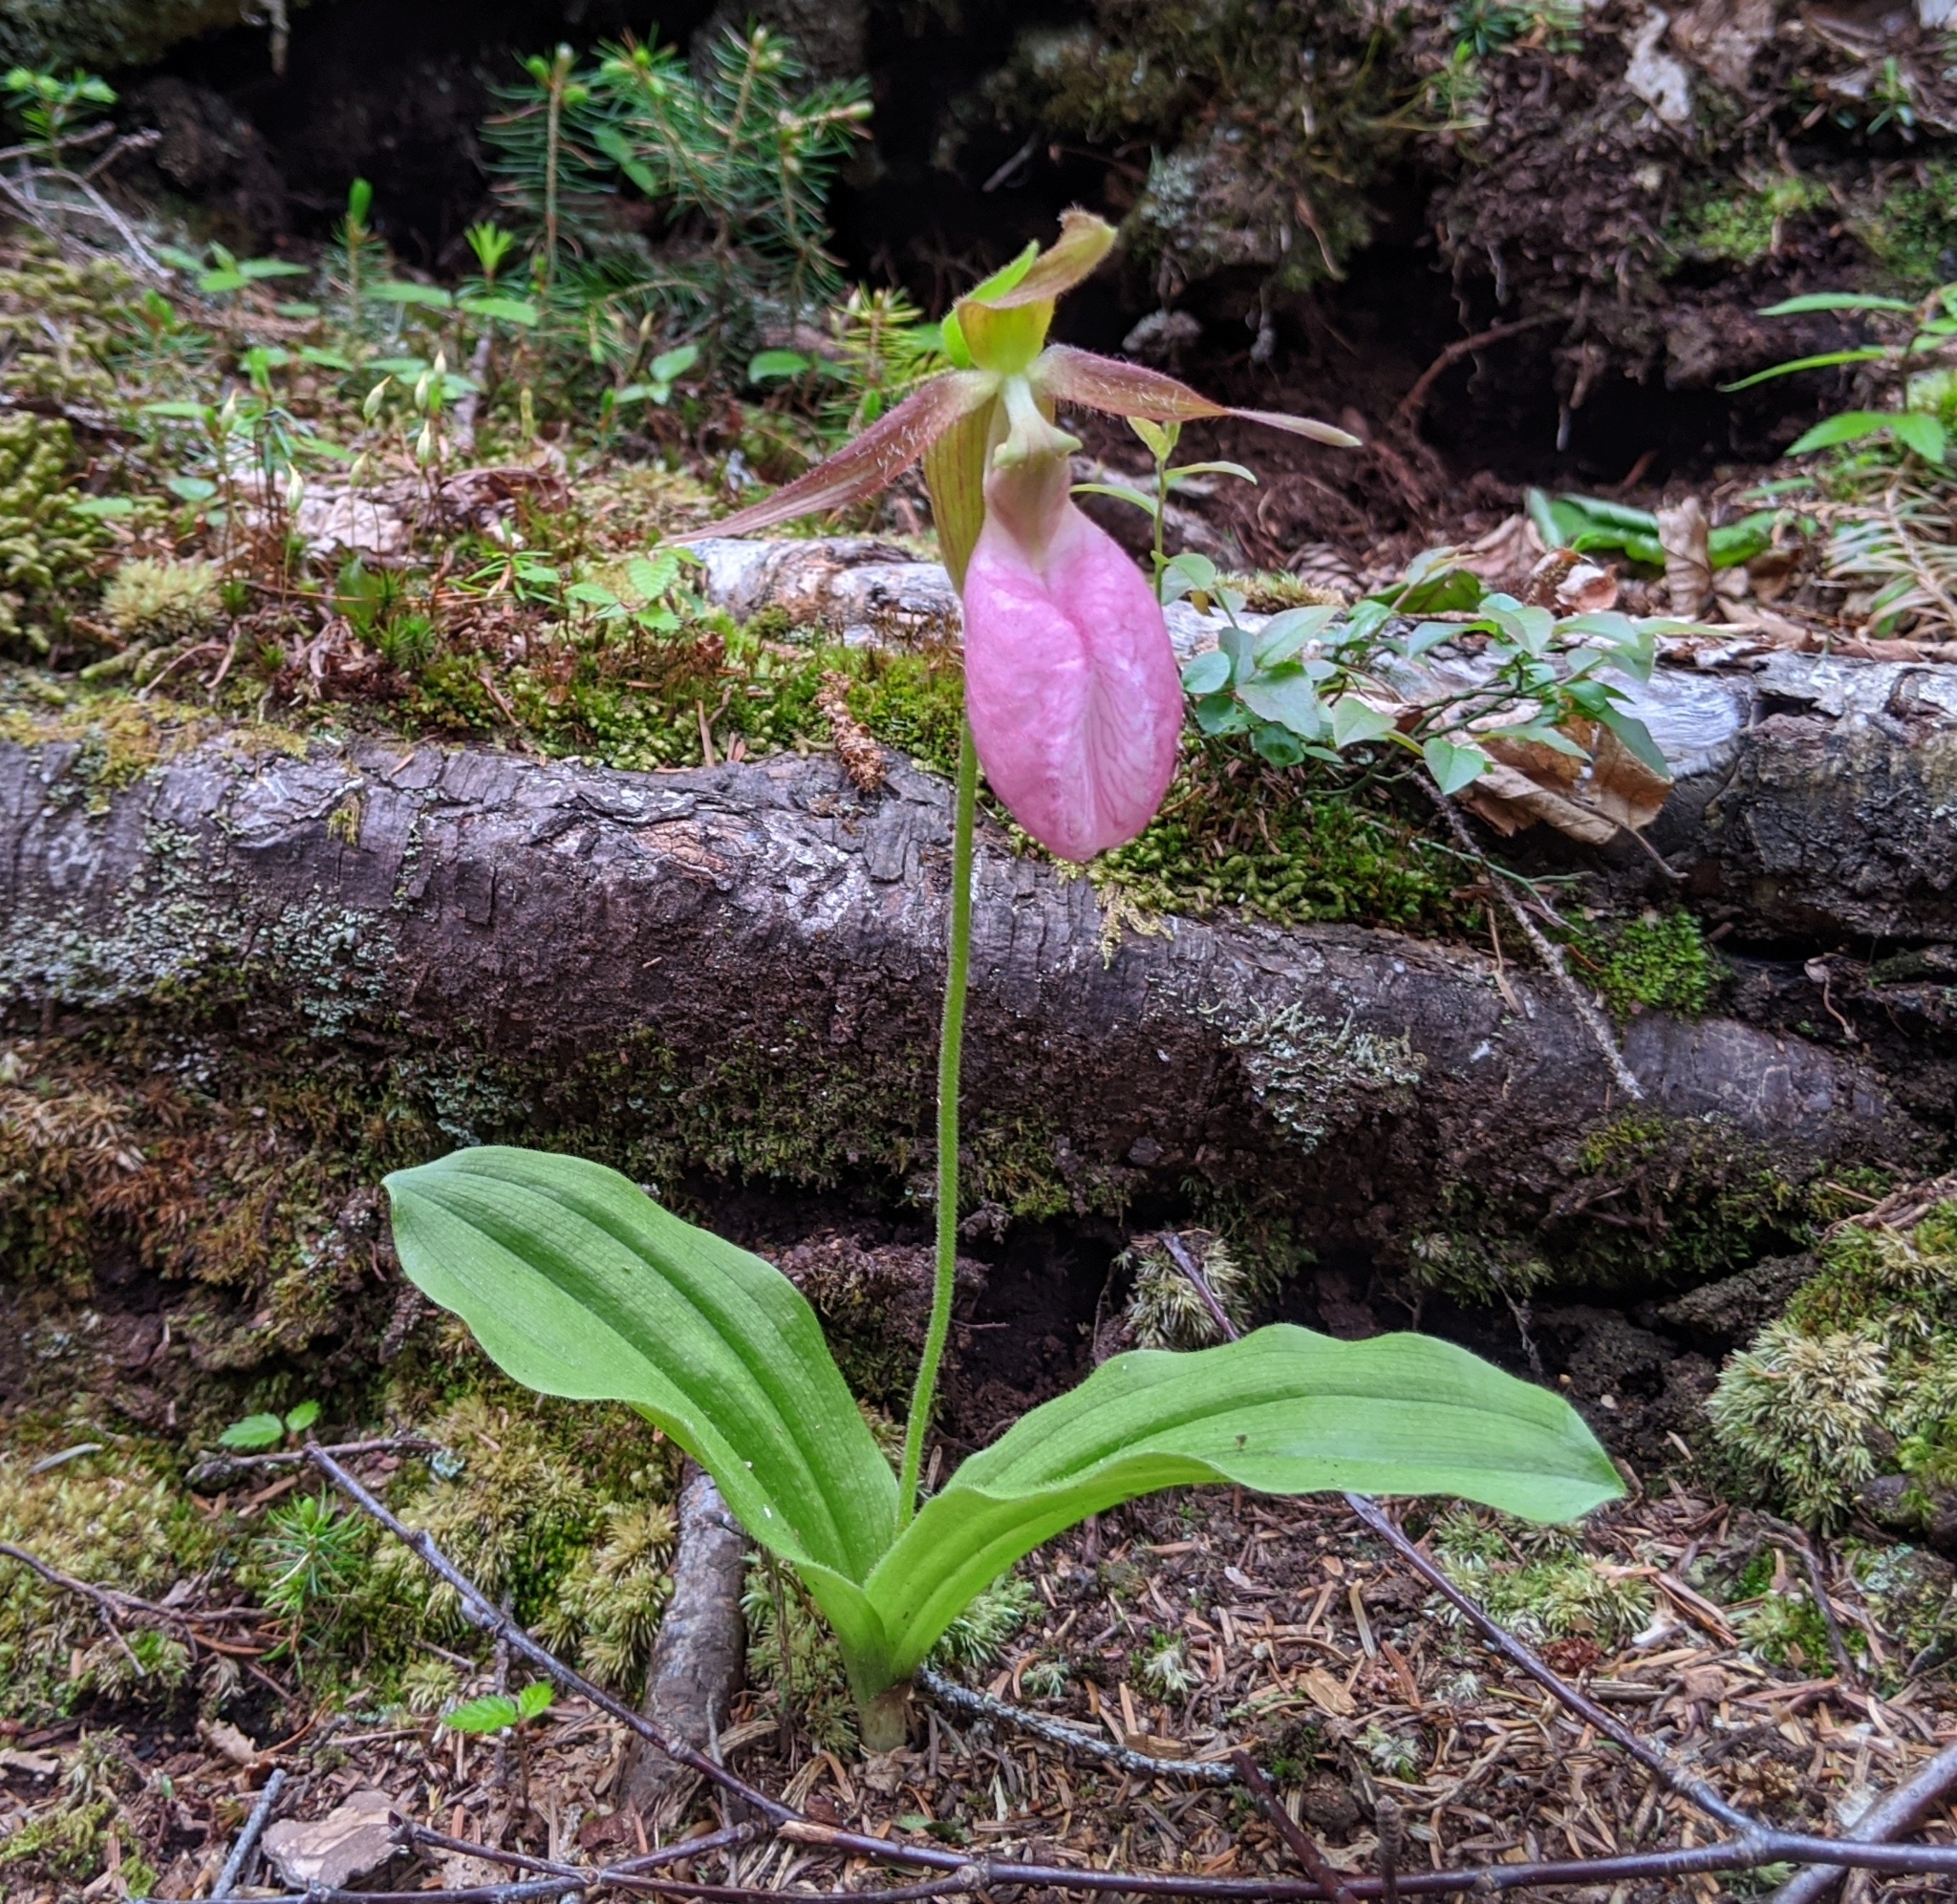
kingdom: Plantae
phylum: Tracheophyta
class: Liliopsida
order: Asparagales
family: Orchidaceae
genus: Cypripedium
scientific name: Cypripedium acaule
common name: Pink lady's-slipper
